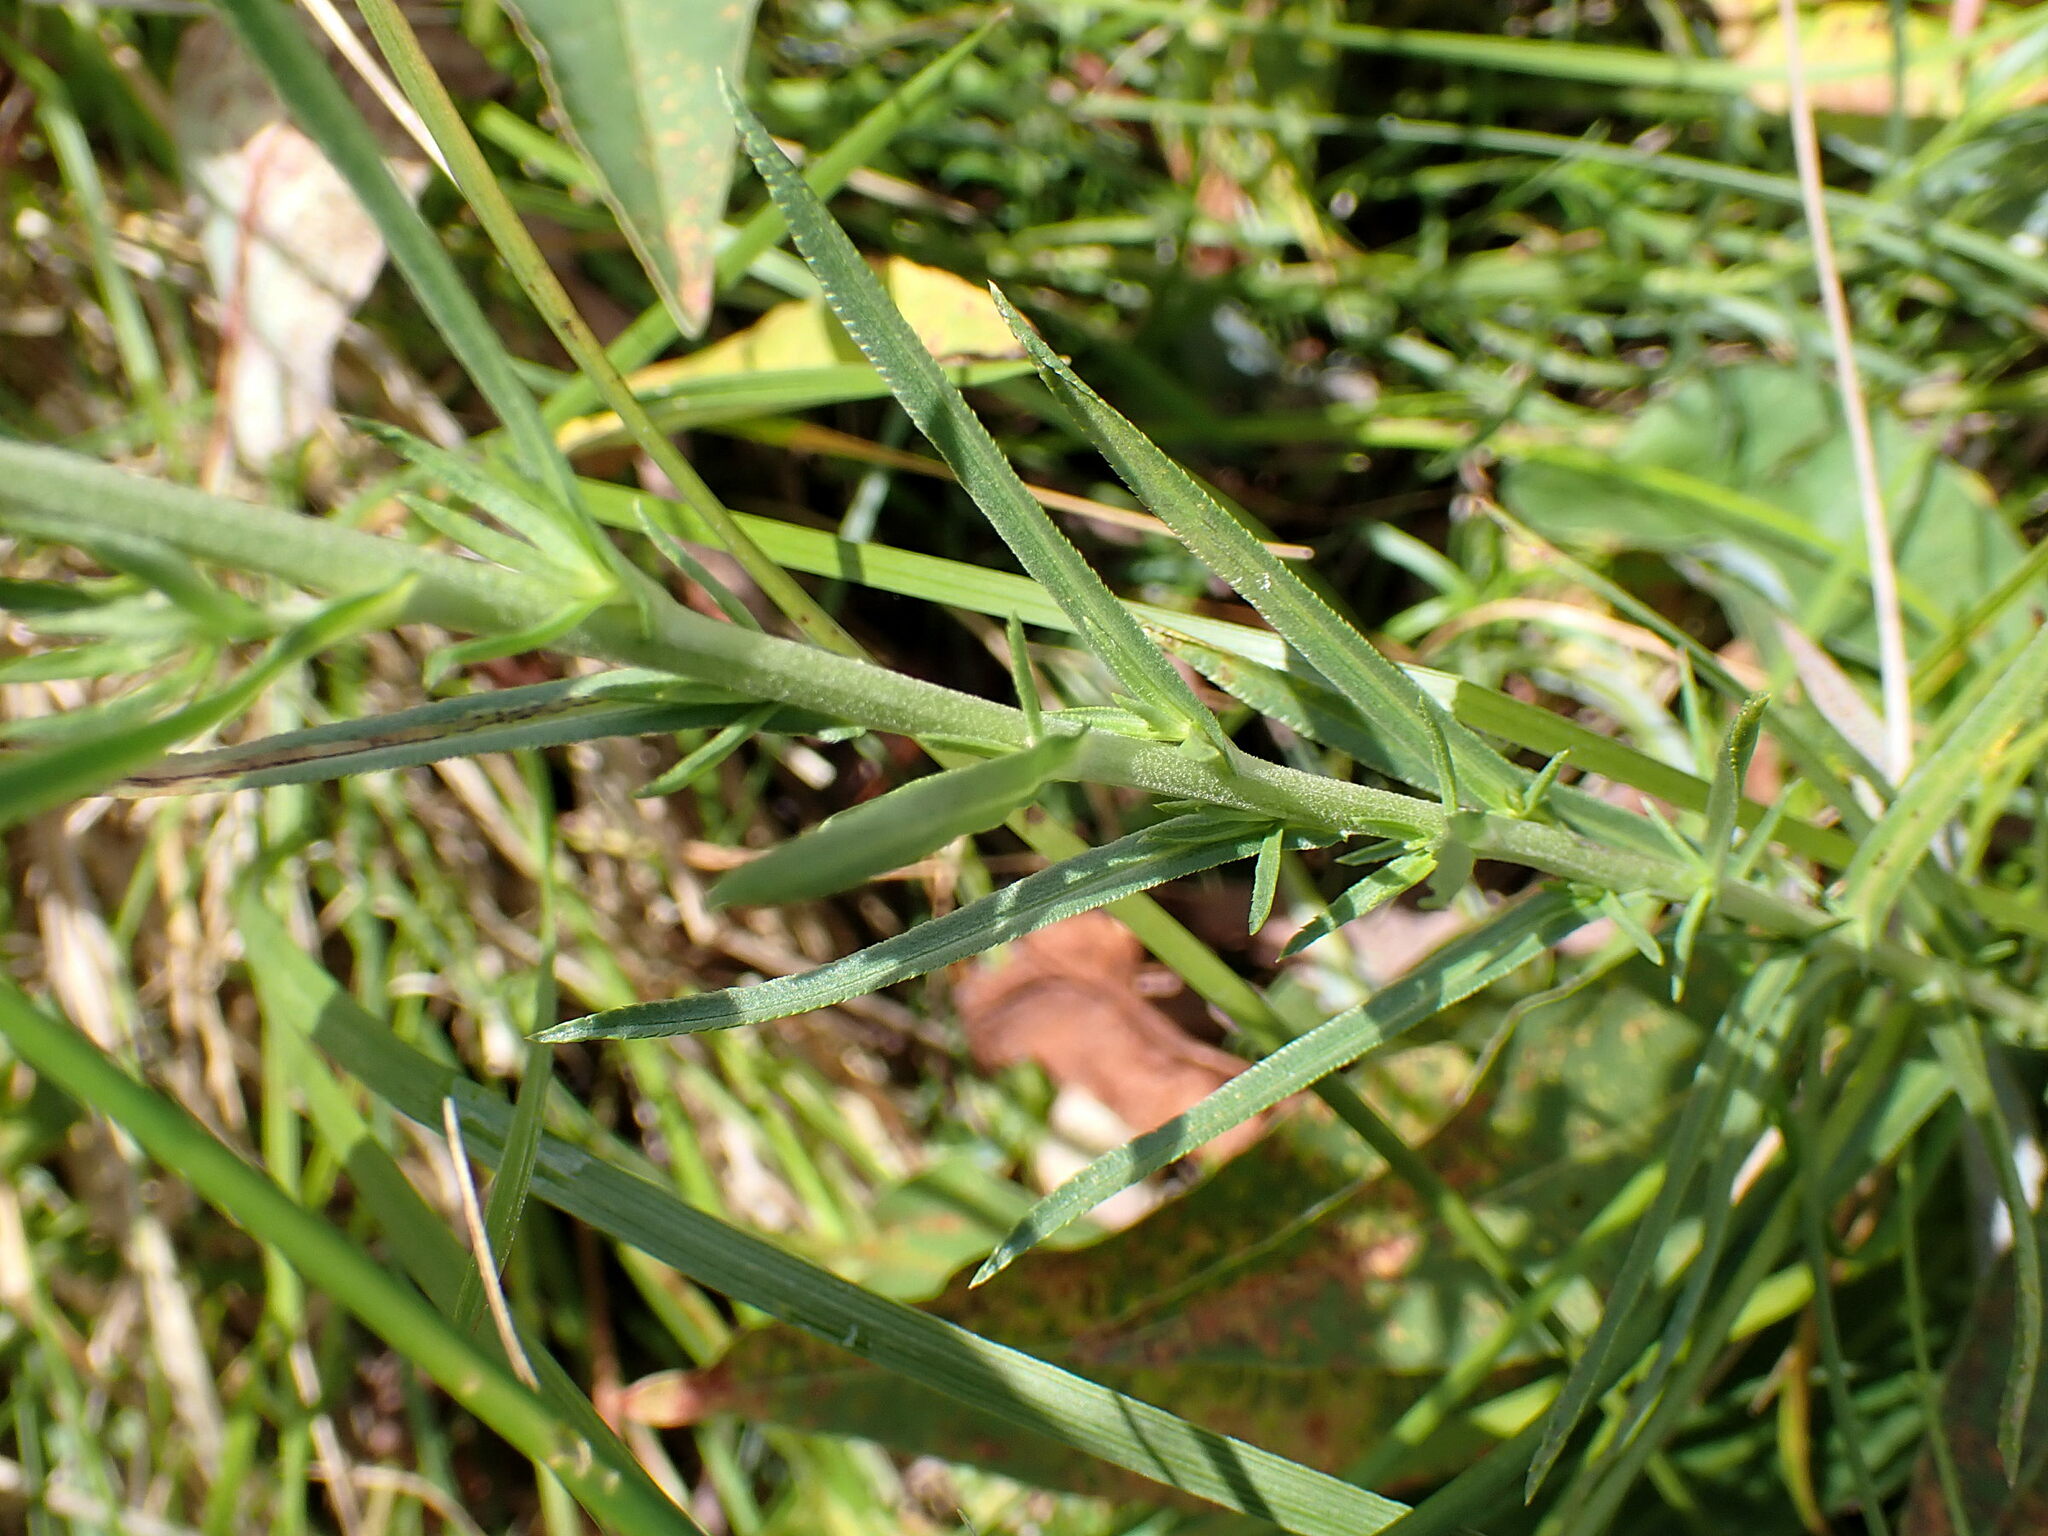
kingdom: Plantae
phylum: Tracheophyta
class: Magnoliopsida
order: Asterales
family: Asteraceae
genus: Achillea
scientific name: Achillea ptarmica
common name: Sneezeweed
